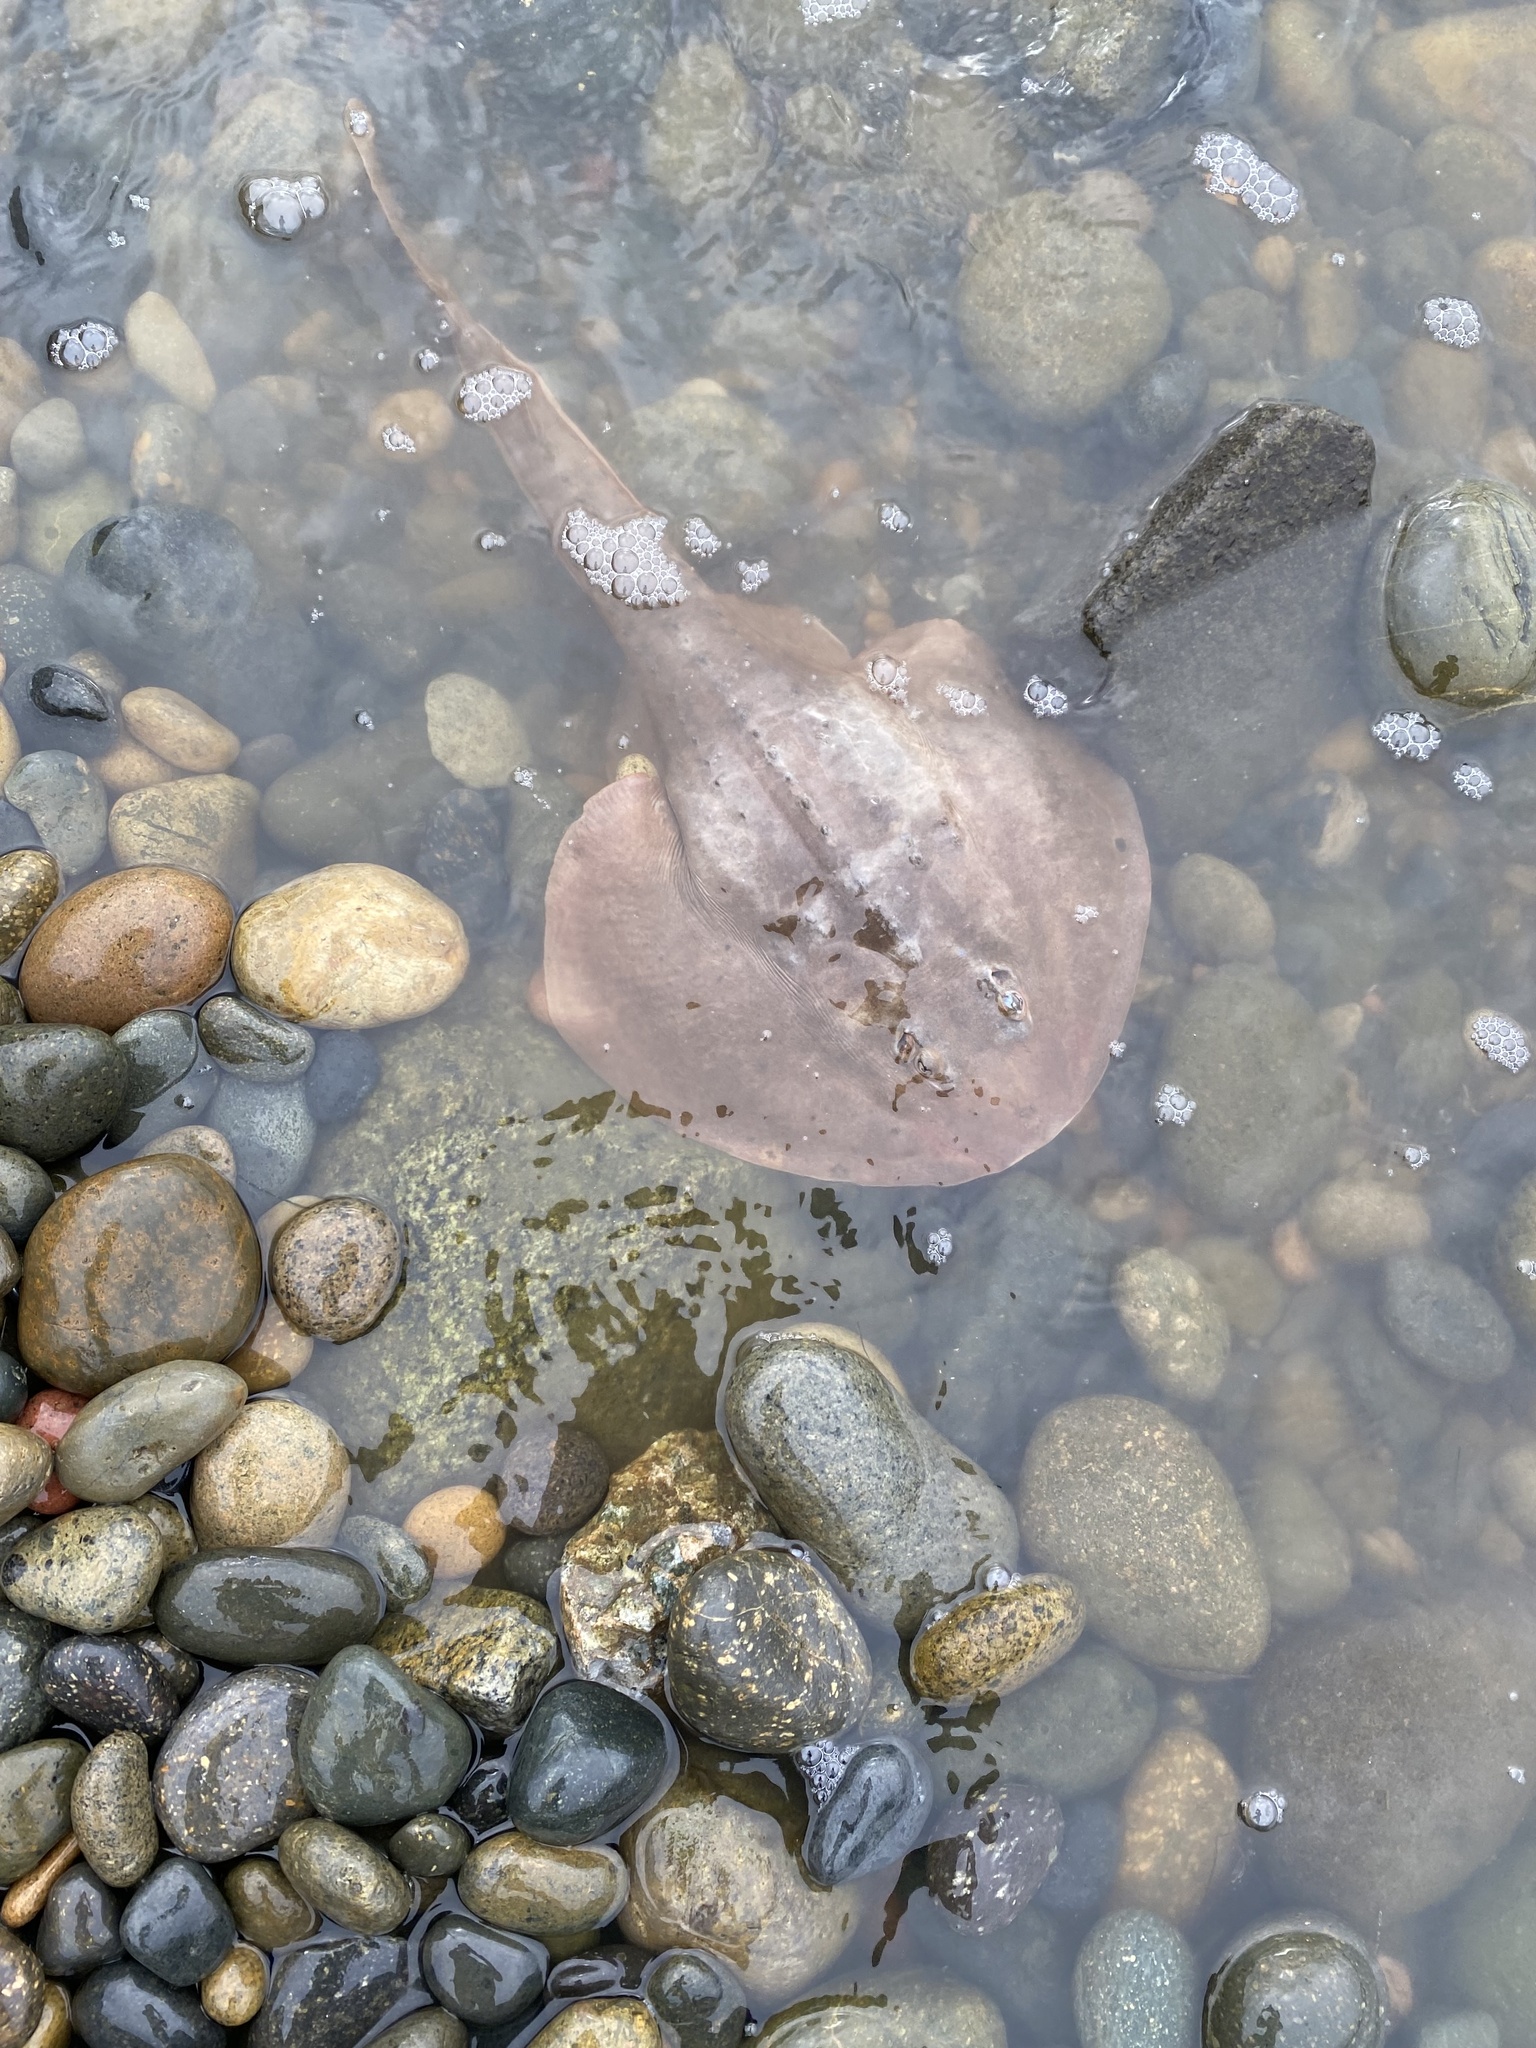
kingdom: Animalia
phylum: Chordata
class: Elasmobranchii
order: Rhinopristiformes
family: Rhinobatidae
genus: Platyrhinoidis
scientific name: Platyrhinoidis triseriata
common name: Thornback
